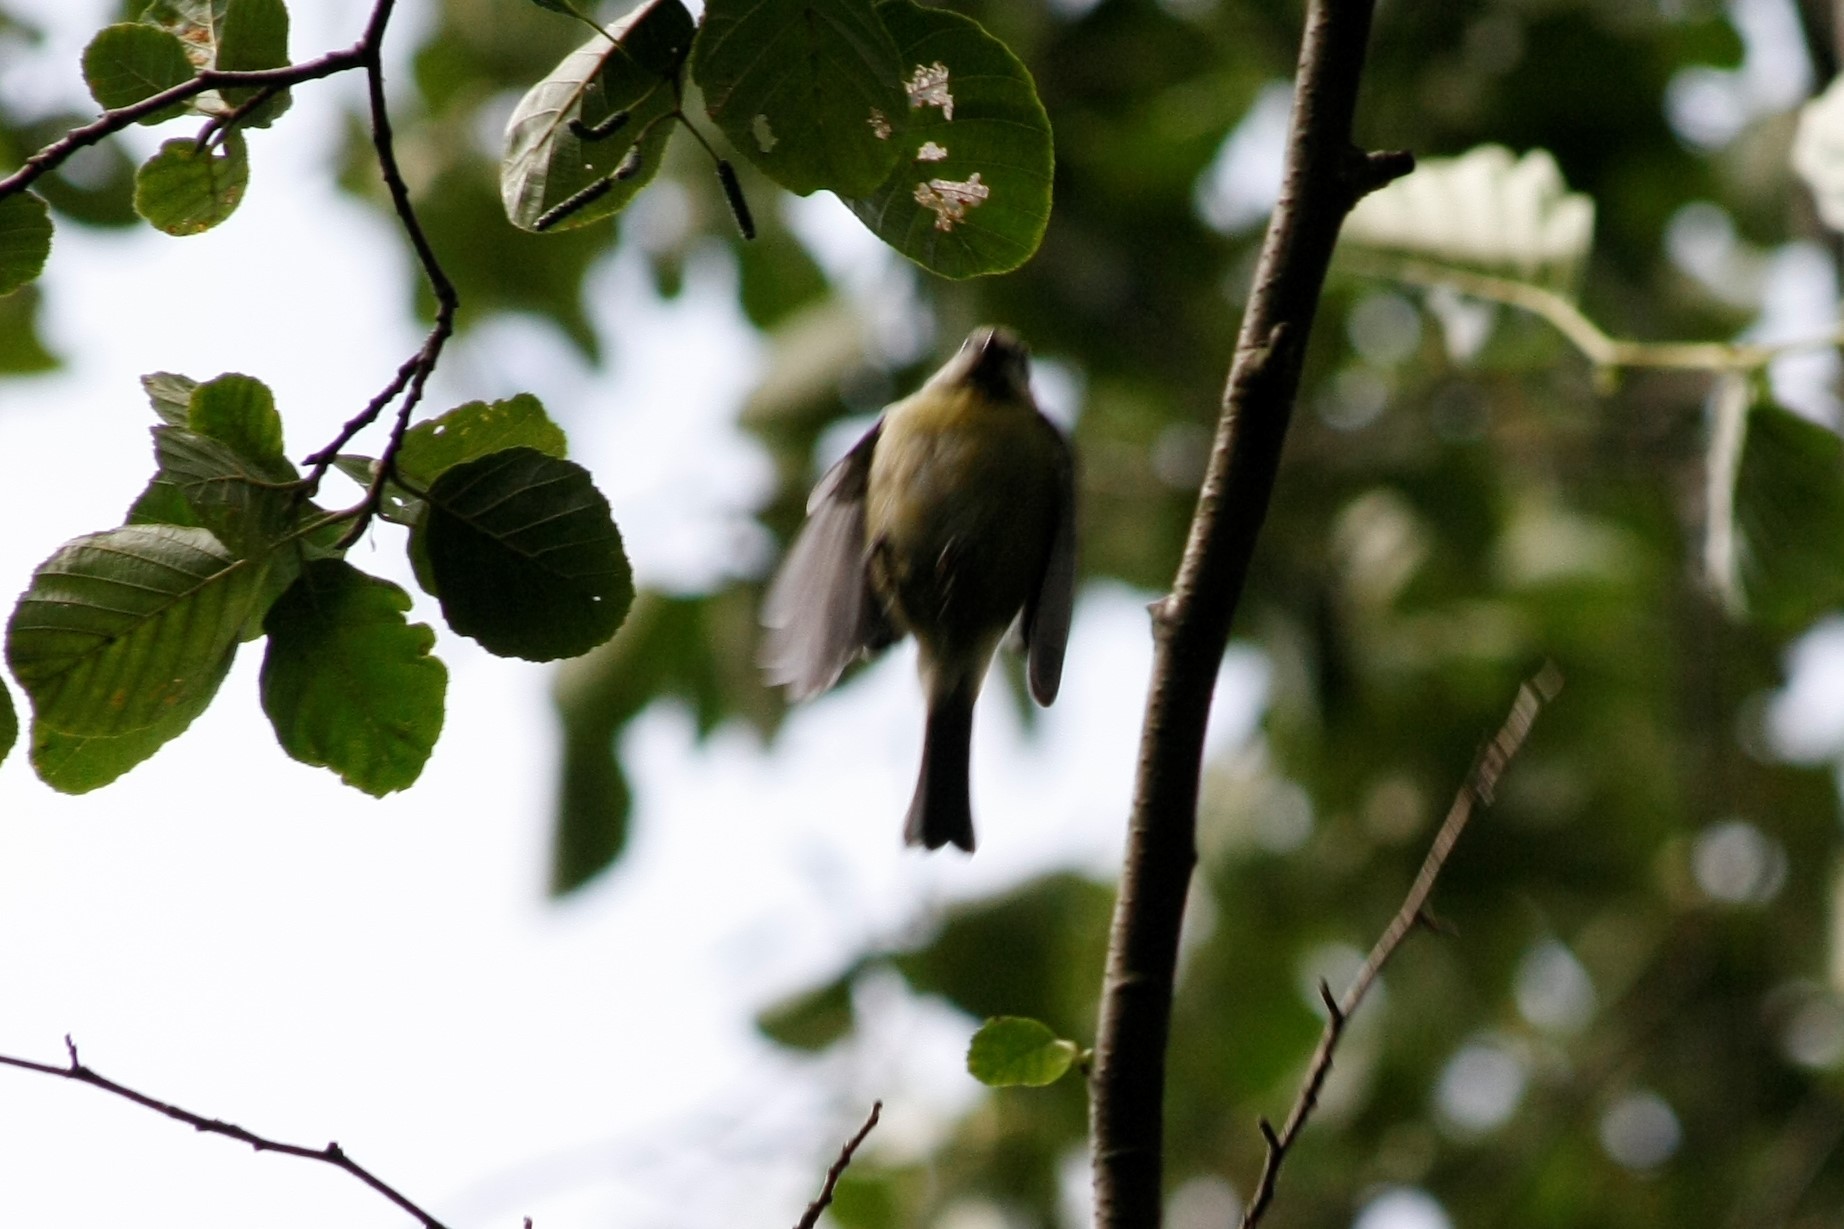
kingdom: Animalia
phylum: Chordata
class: Aves
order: Passeriformes
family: Paridae
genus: Cyanistes
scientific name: Cyanistes caeruleus
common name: Eurasian blue tit
